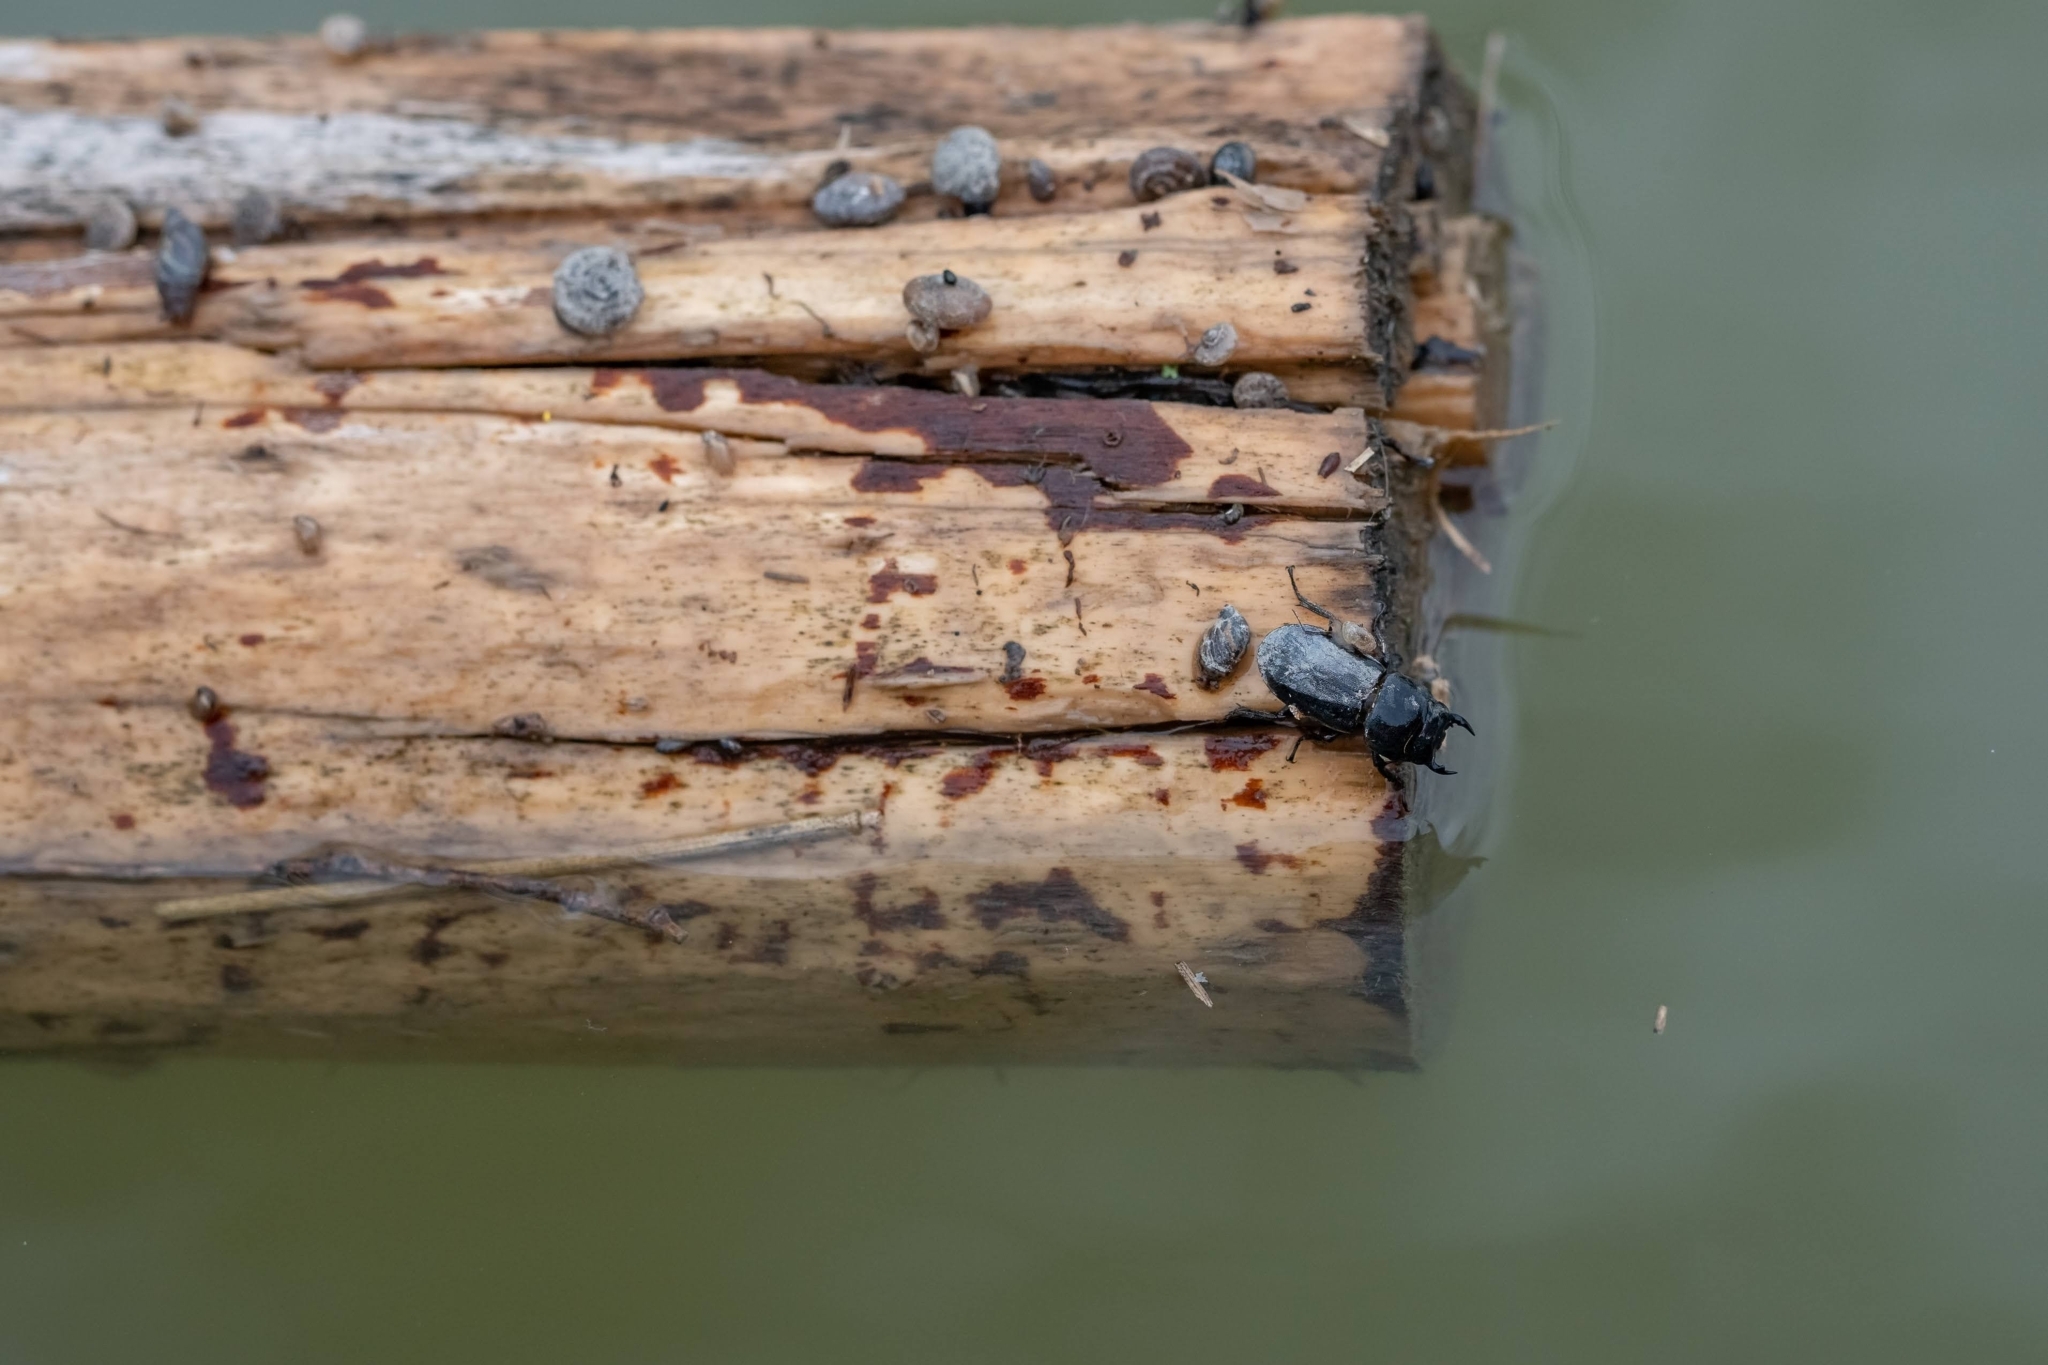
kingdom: Animalia
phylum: Arthropoda
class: Insecta
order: Coleoptera
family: Lucanidae
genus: Dorcus
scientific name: Dorcus parallelipipedus
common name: Lesser stag beetle
